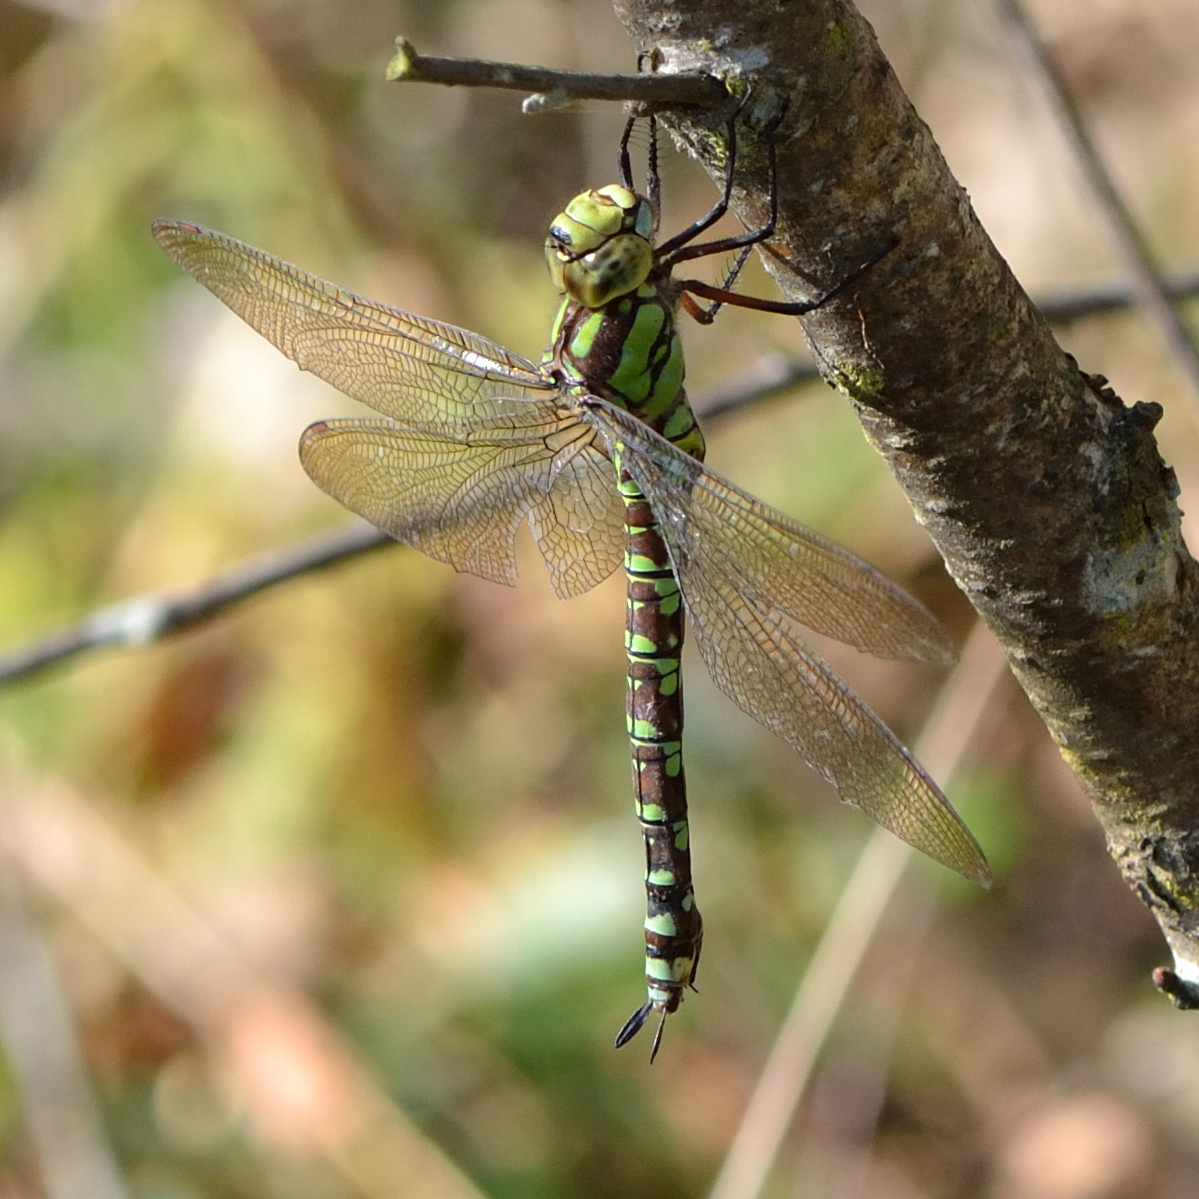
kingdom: Animalia
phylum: Arthropoda
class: Insecta
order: Odonata
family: Aeshnidae
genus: Aeshna
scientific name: Aeshna cyanea
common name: Southern hawker
